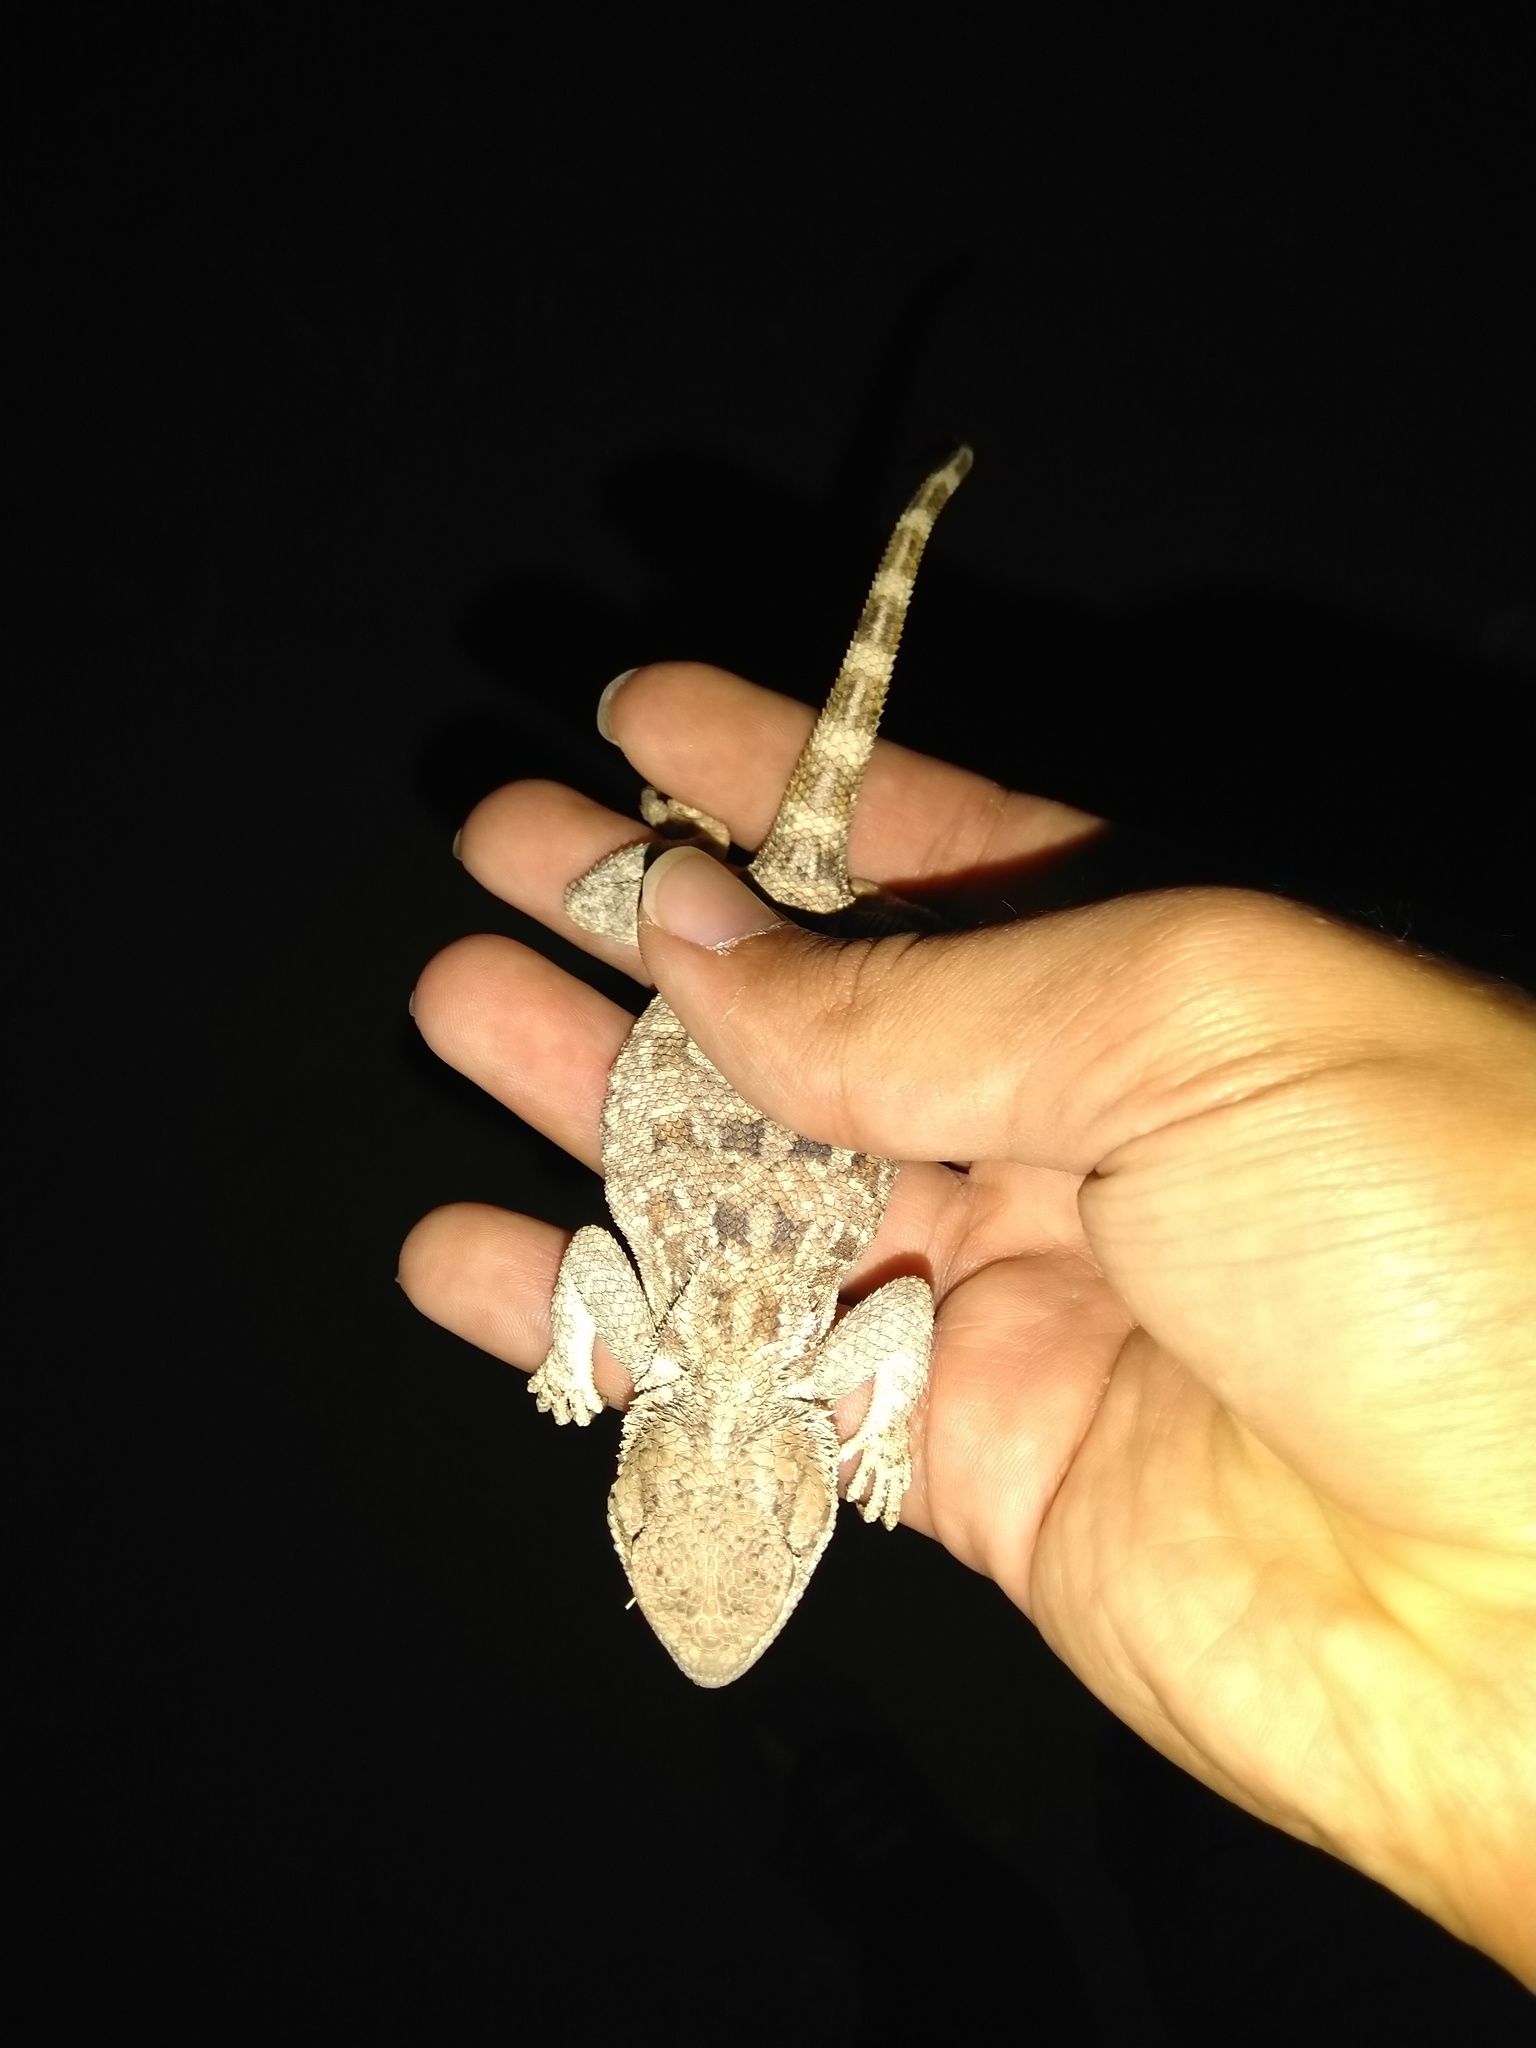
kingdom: Animalia
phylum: Chordata
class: Squamata
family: Agamidae
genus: Trapelus
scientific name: Trapelus agilis
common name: Brilliant ground agama
